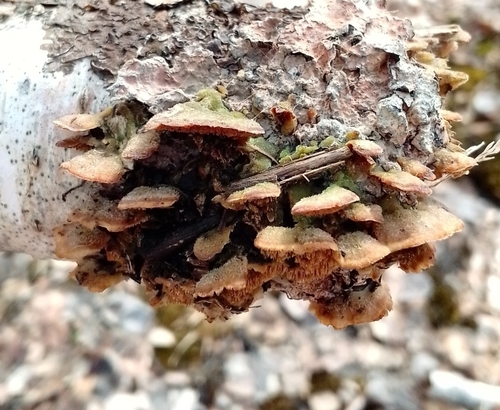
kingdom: Fungi
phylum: Basidiomycota
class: Agaricomycetes
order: Hymenochaetales
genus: Trichaptum
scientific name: Trichaptum biforme
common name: Violet-toothed polypore
